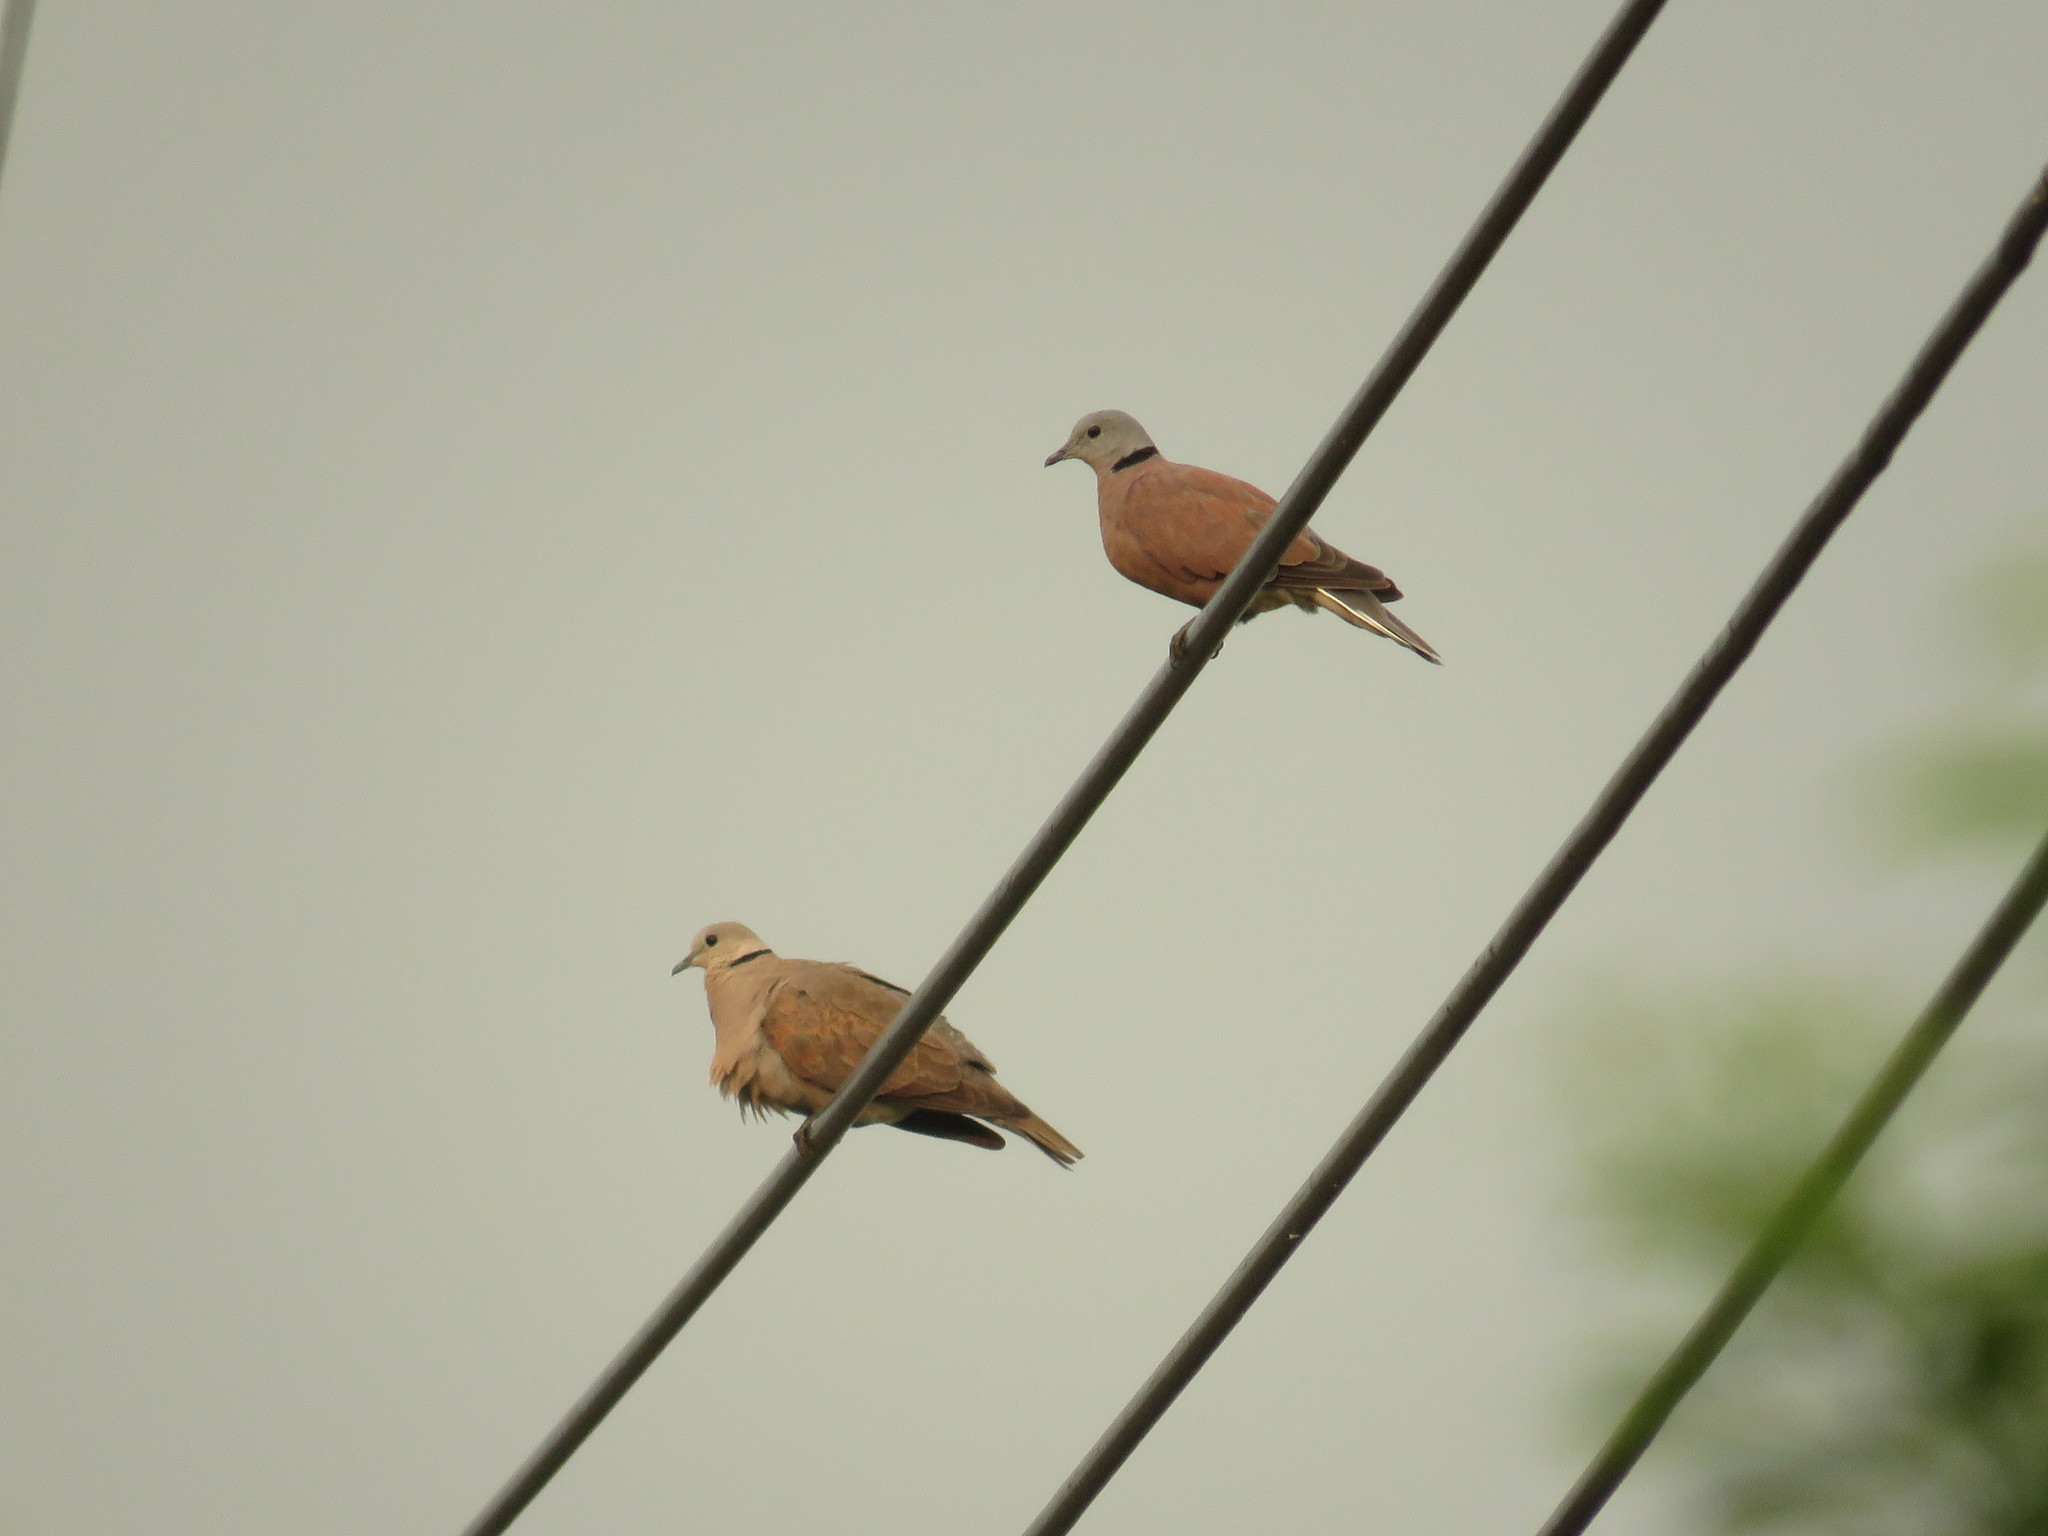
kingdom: Animalia
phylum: Chordata
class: Aves
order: Columbiformes
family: Columbidae
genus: Streptopelia
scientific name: Streptopelia tranquebarica
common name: Red turtle dove
